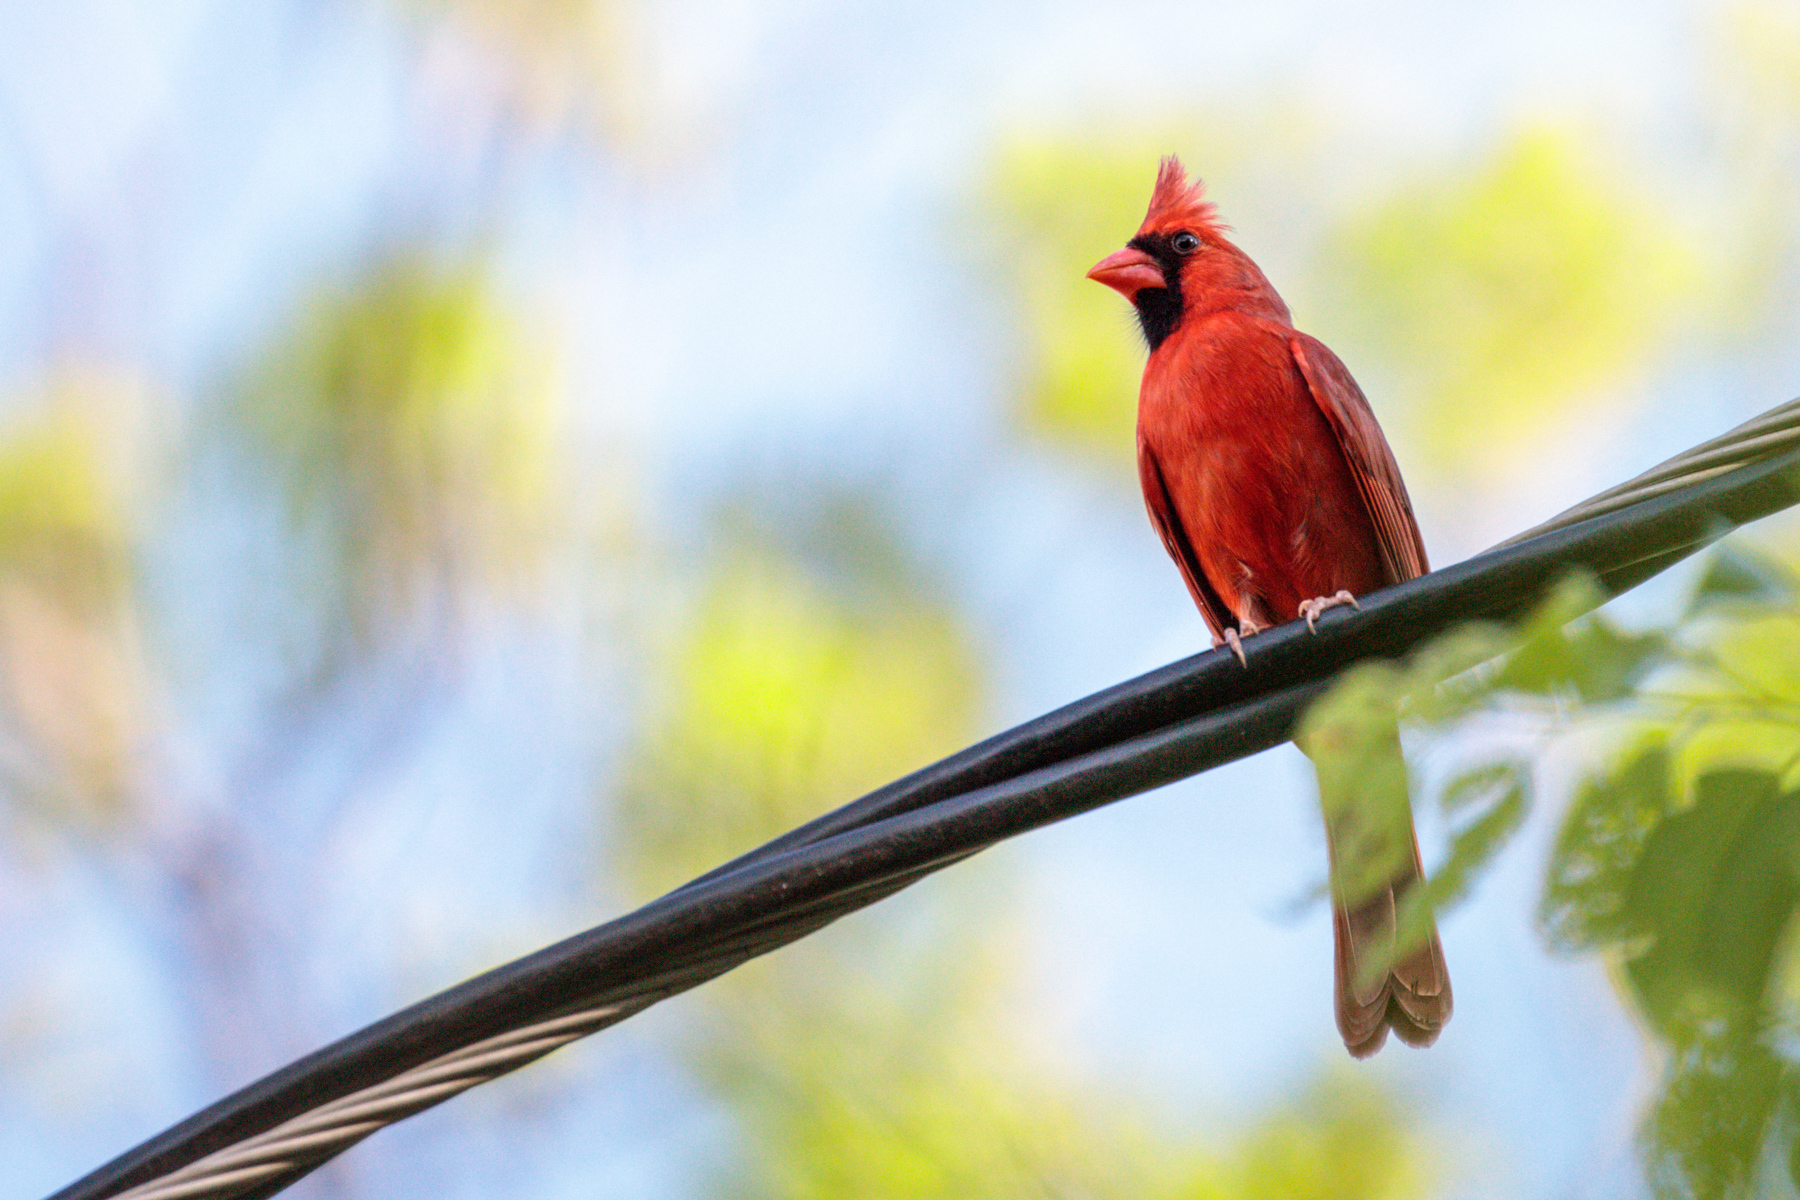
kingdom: Animalia
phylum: Chordata
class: Aves
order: Passeriformes
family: Cardinalidae
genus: Cardinalis
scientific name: Cardinalis cardinalis
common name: Northern cardinal
